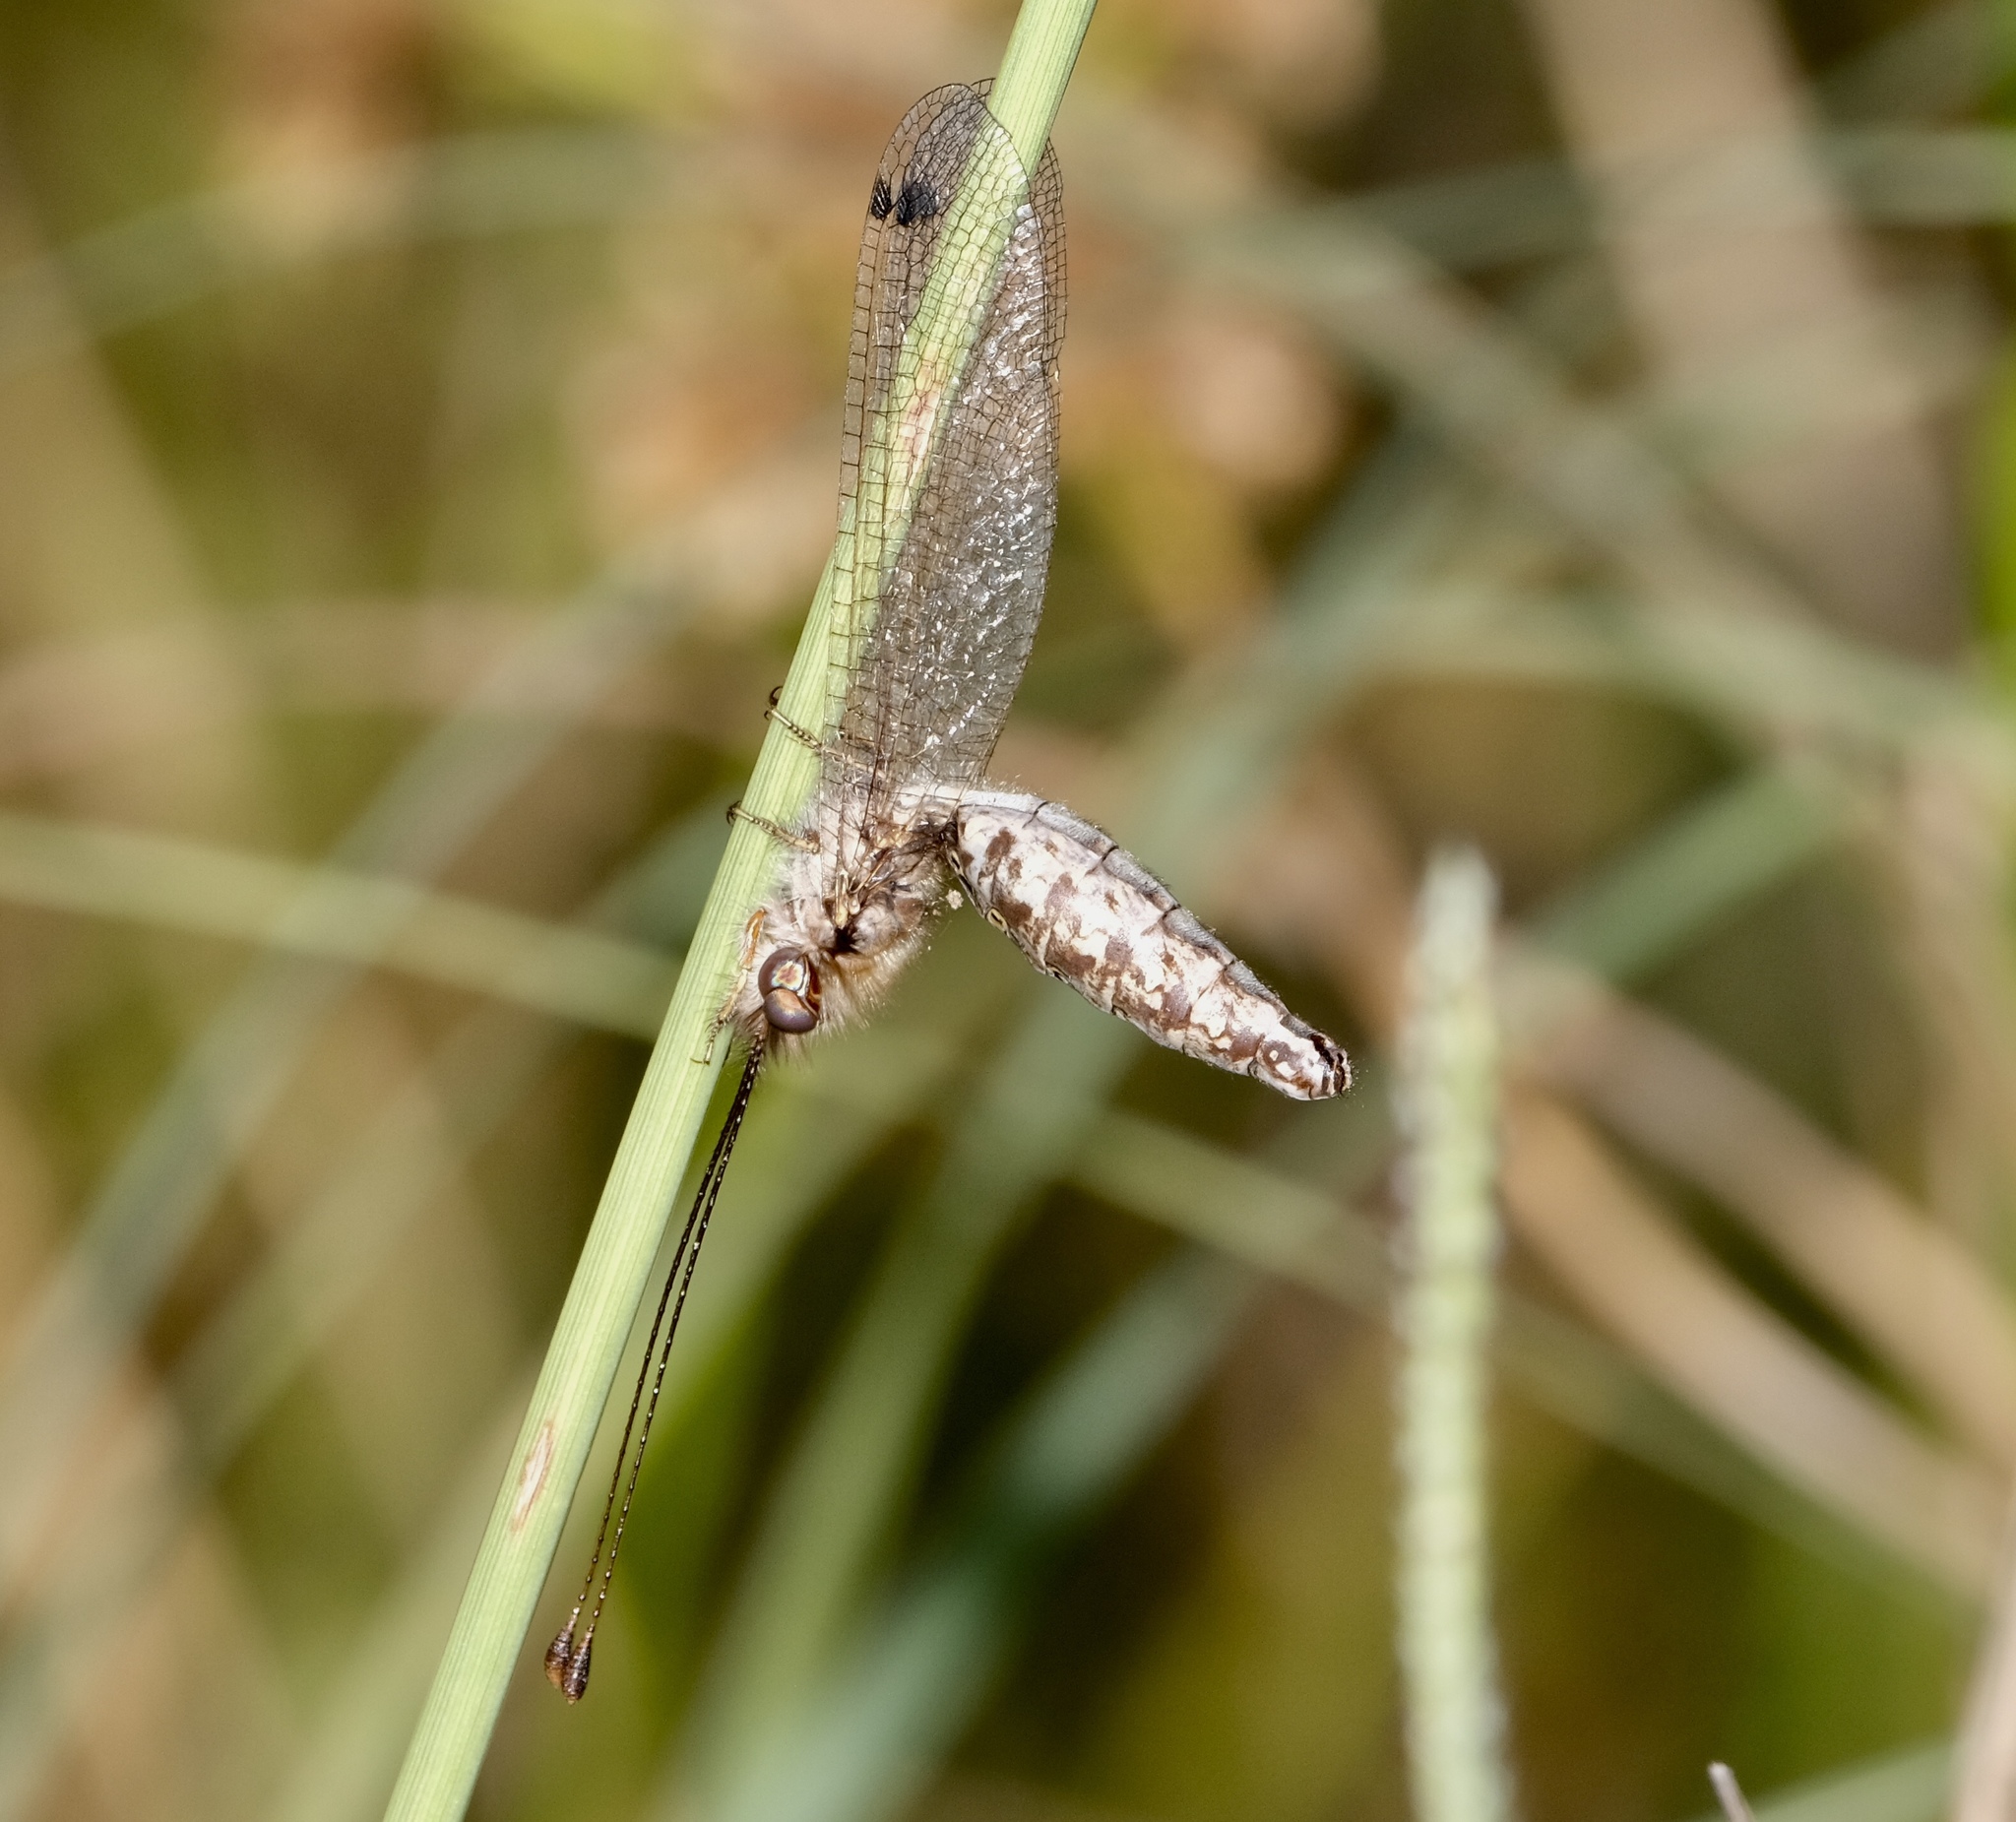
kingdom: Animalia
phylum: Arthropoda
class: Insecta
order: Neuroptera
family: Ascalaphidae
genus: Ululodes
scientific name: Ululodes macleayanus
